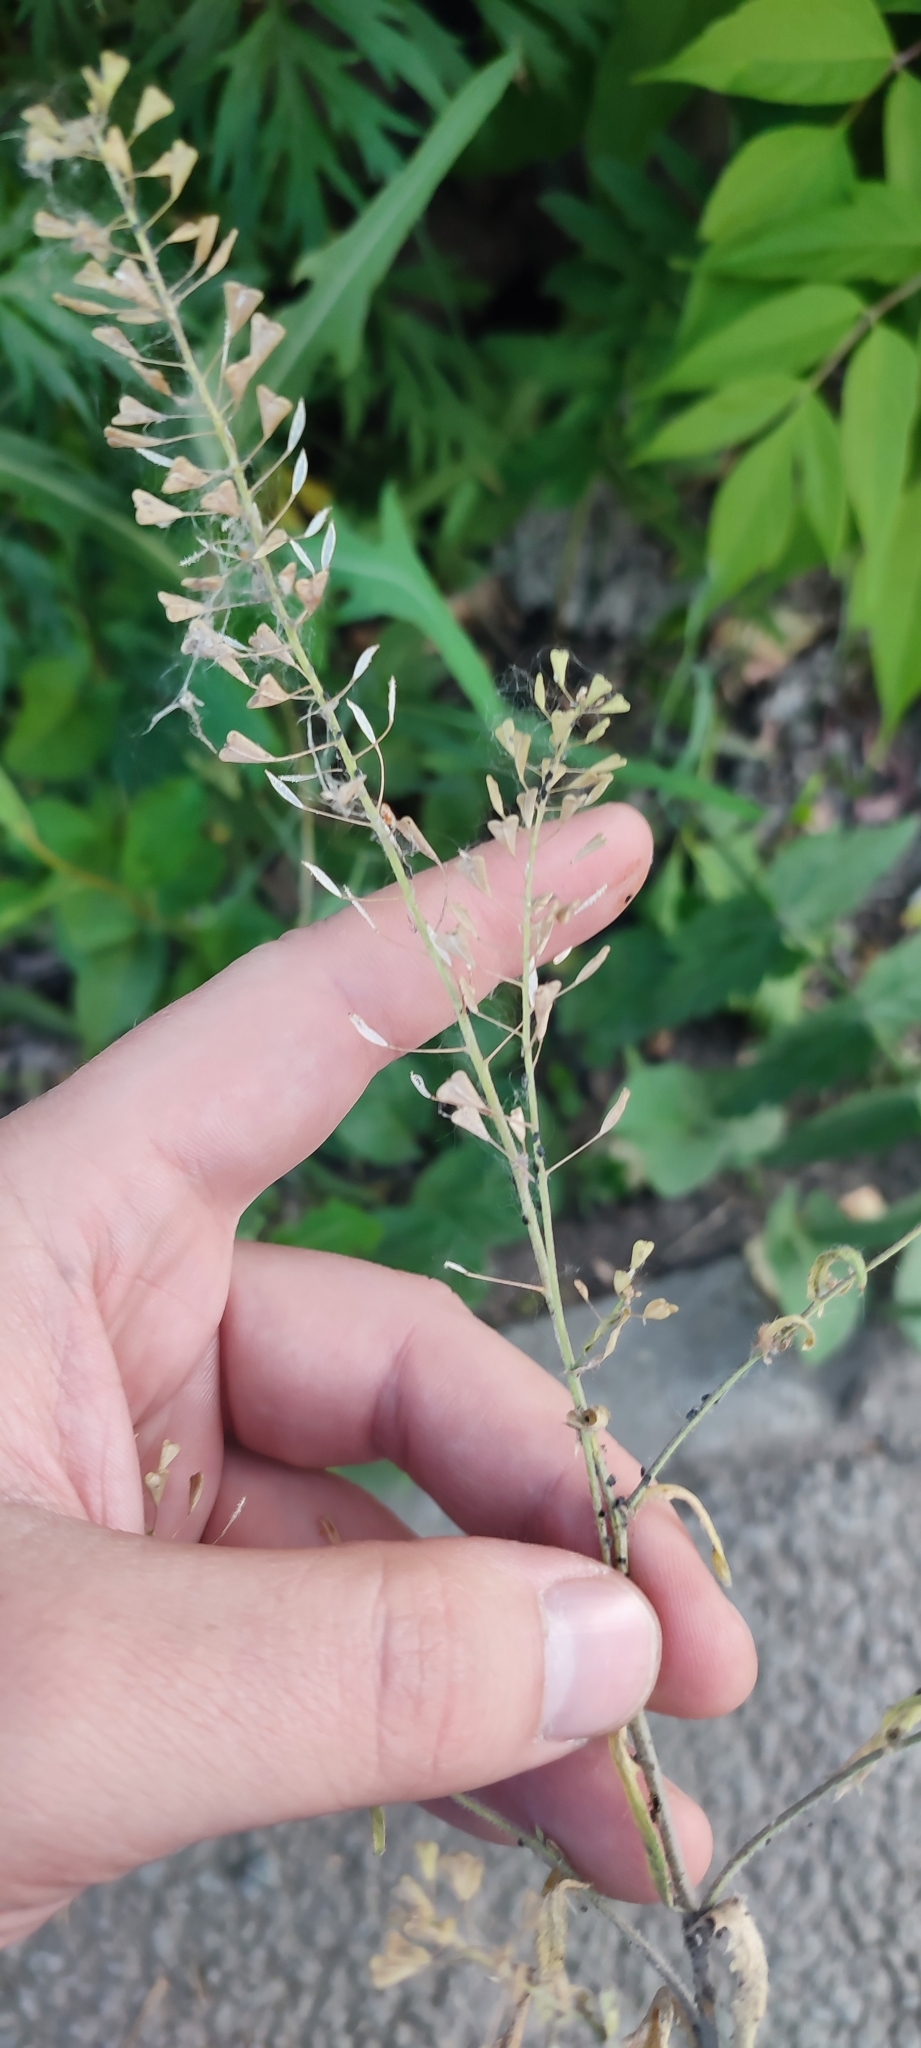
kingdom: Plantae
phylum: Tracheophyta
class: Magnoliopsida
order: Brassicales
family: Brassicaceae
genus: Capsella
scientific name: Capsella bursa-pastoris
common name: Shepherd's purse
